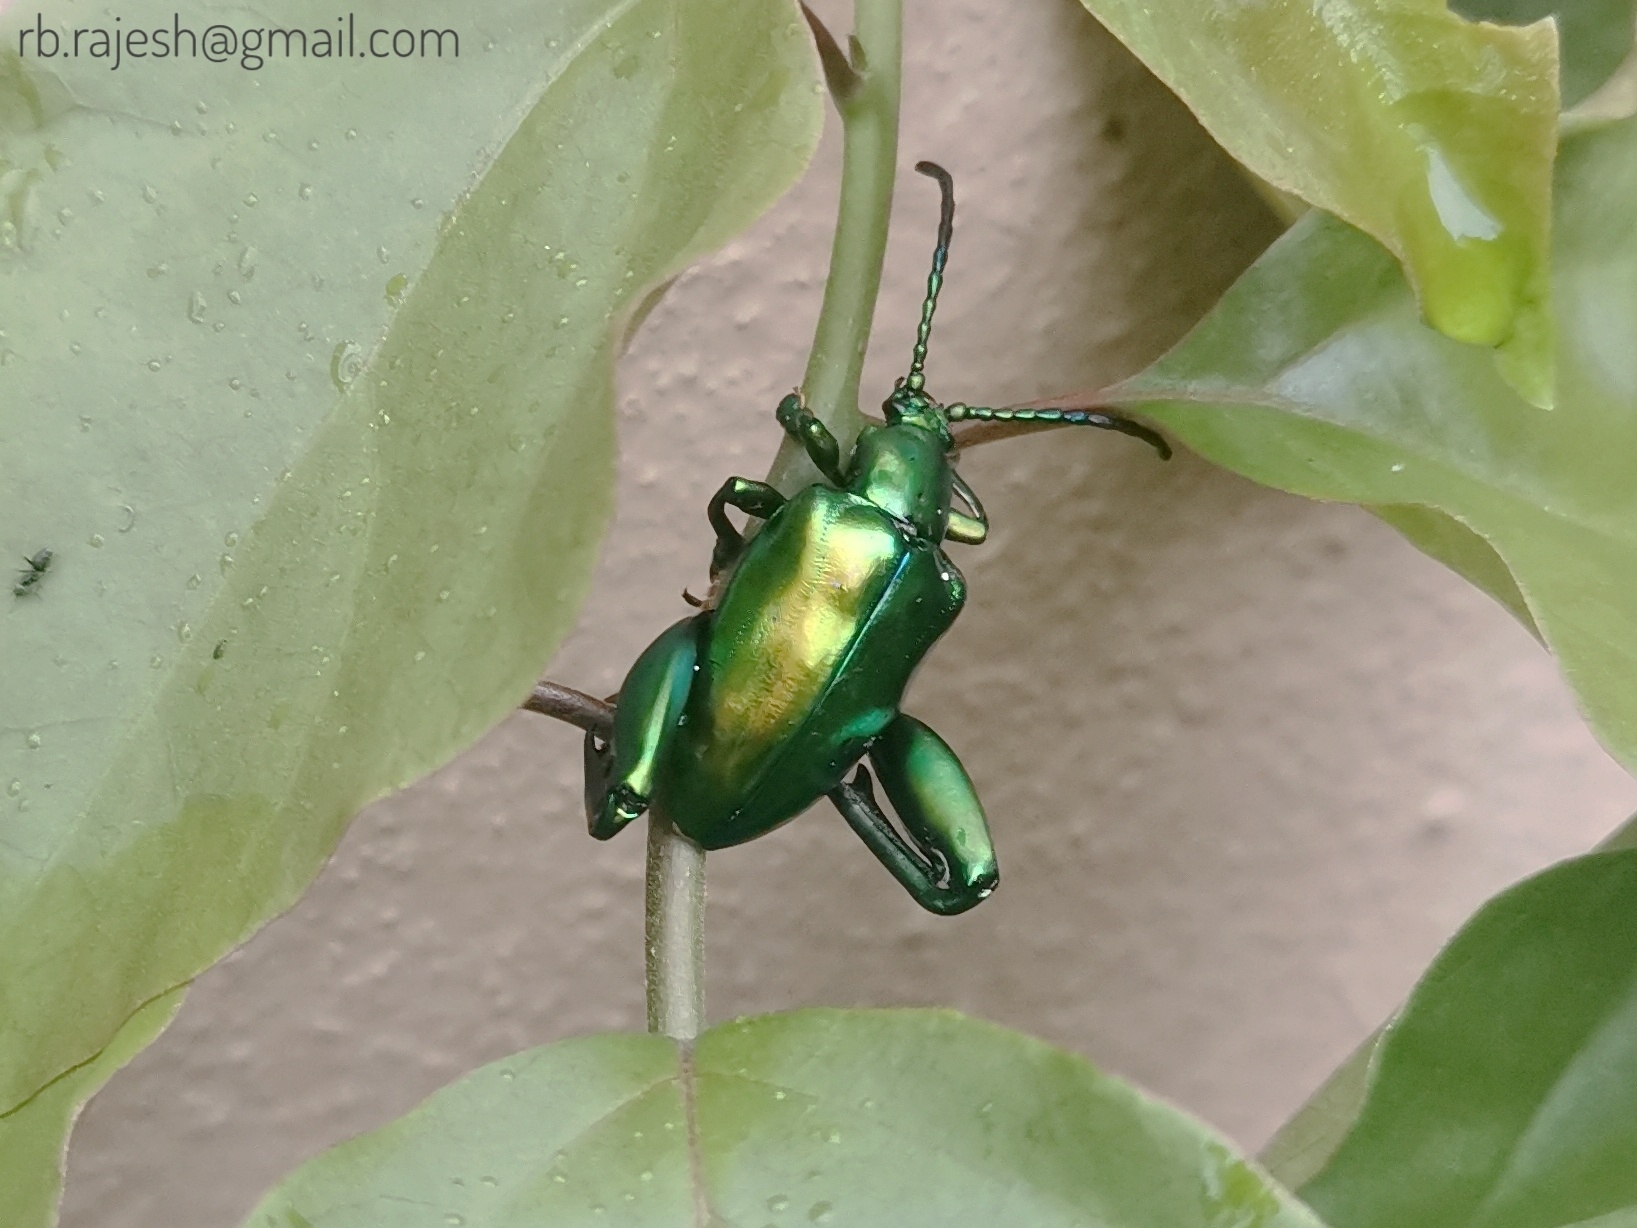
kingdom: Animalia
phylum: Arthropoda
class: Insecta
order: Coleoptera
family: Chrysomelidae
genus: Sagra
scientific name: Sagra femorata
